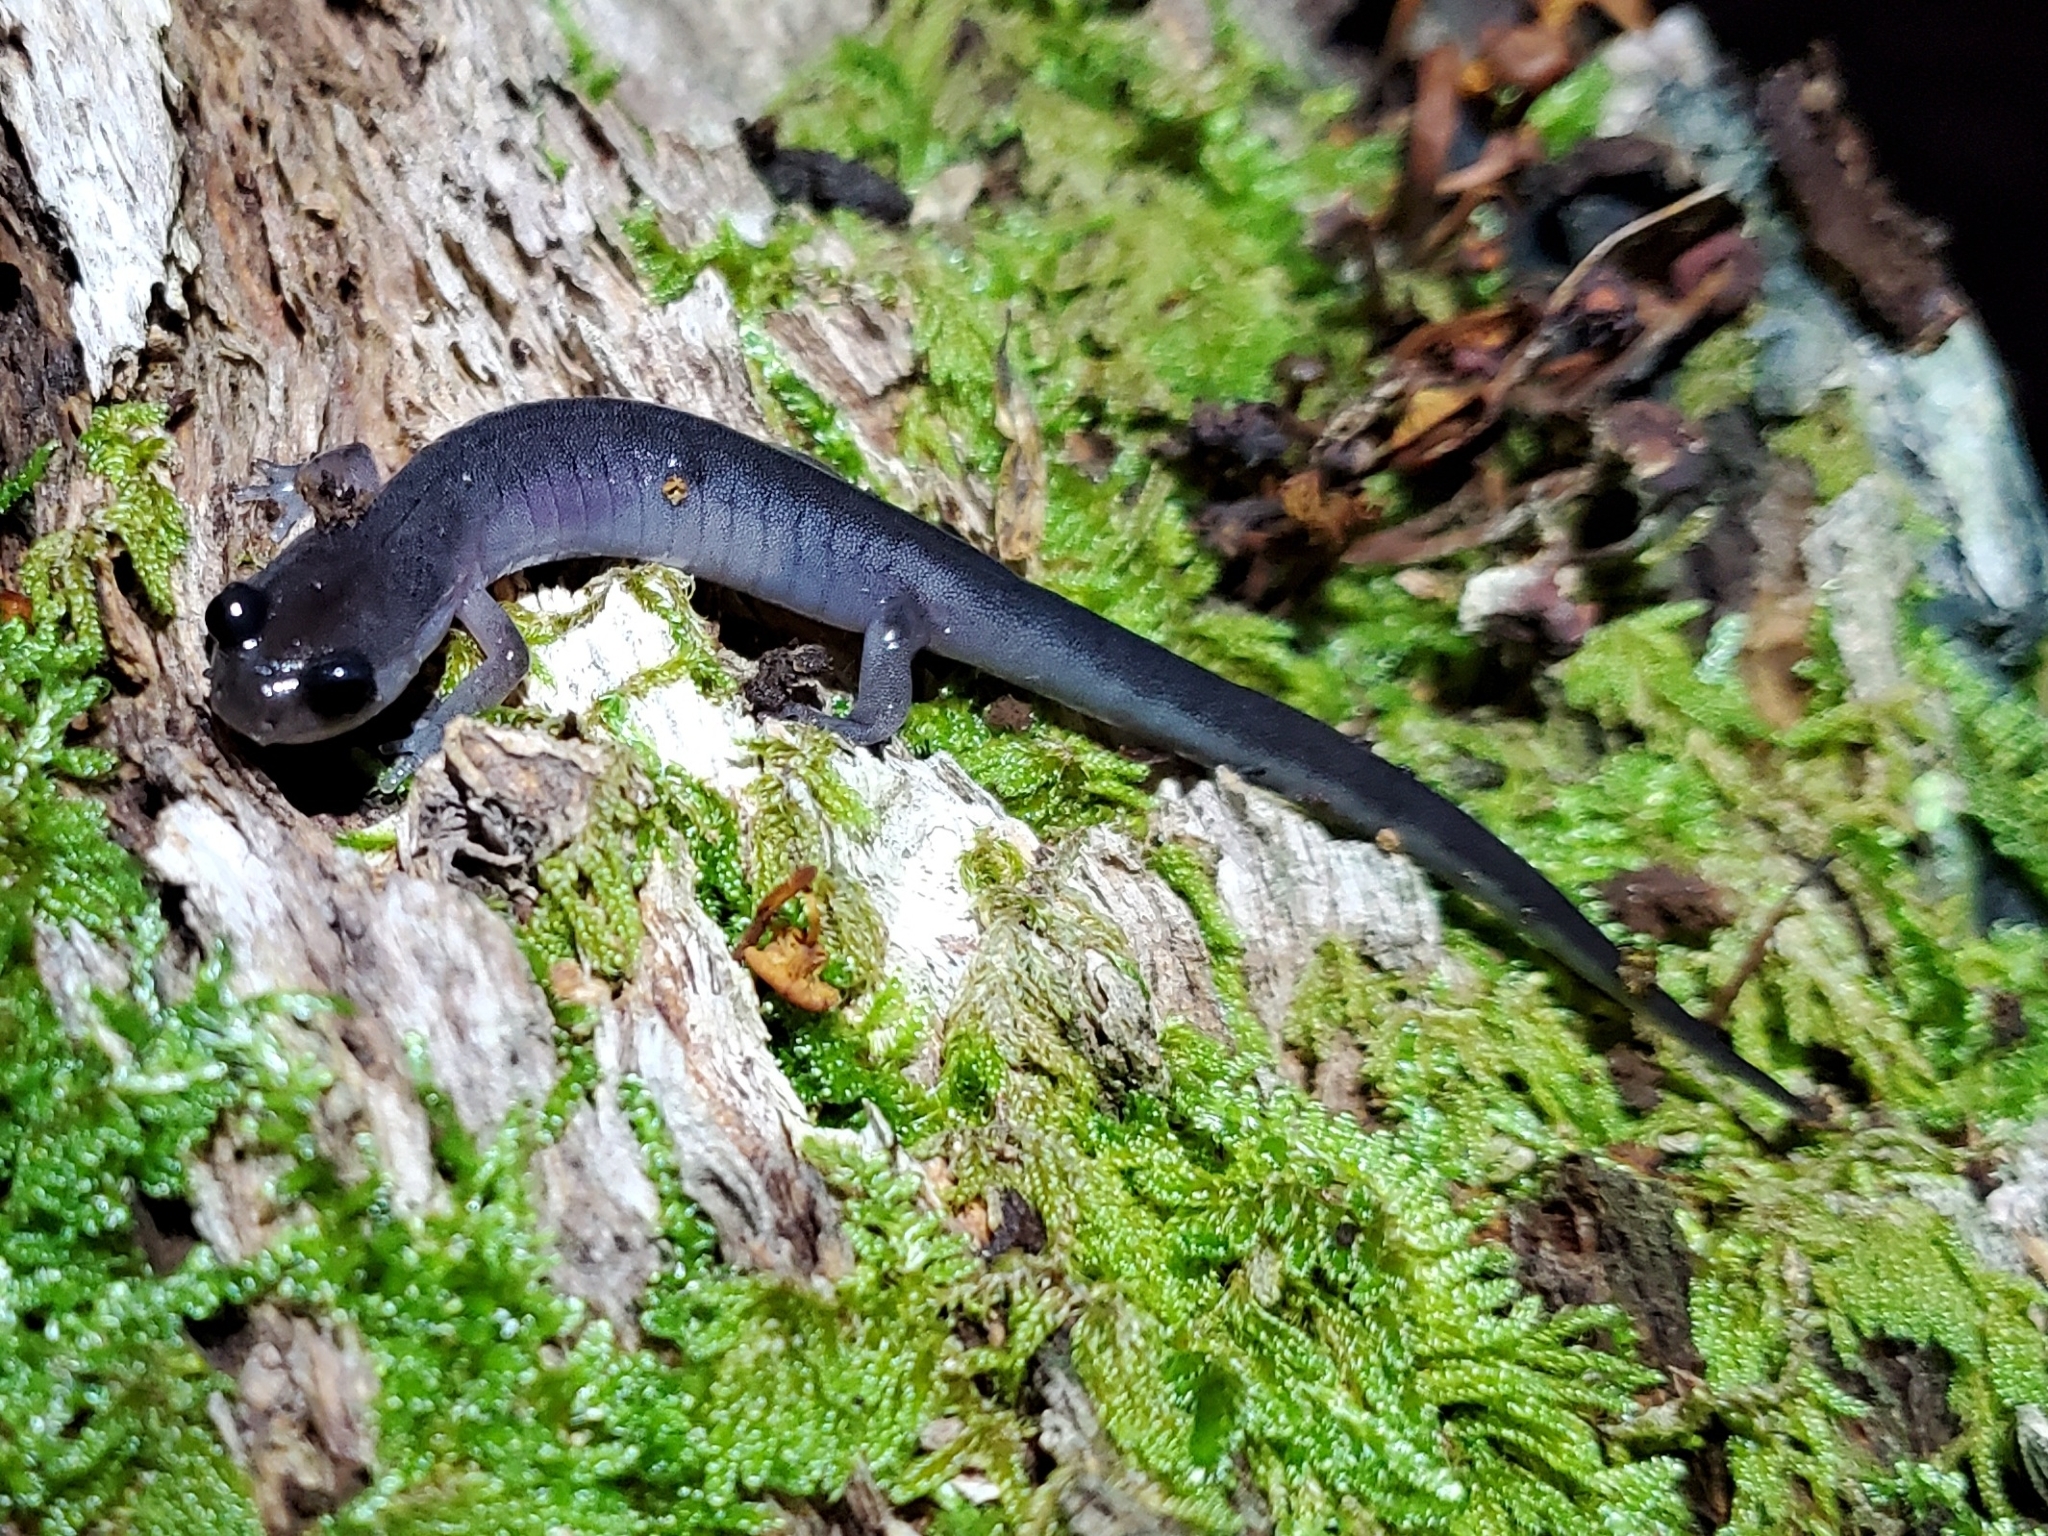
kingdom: Animalia
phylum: Chordata
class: Amphibia
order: Caudata
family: Plethodontidae
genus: Plethodon
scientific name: Plethodon metcalfi
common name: Southern gray-cheeked salamander
